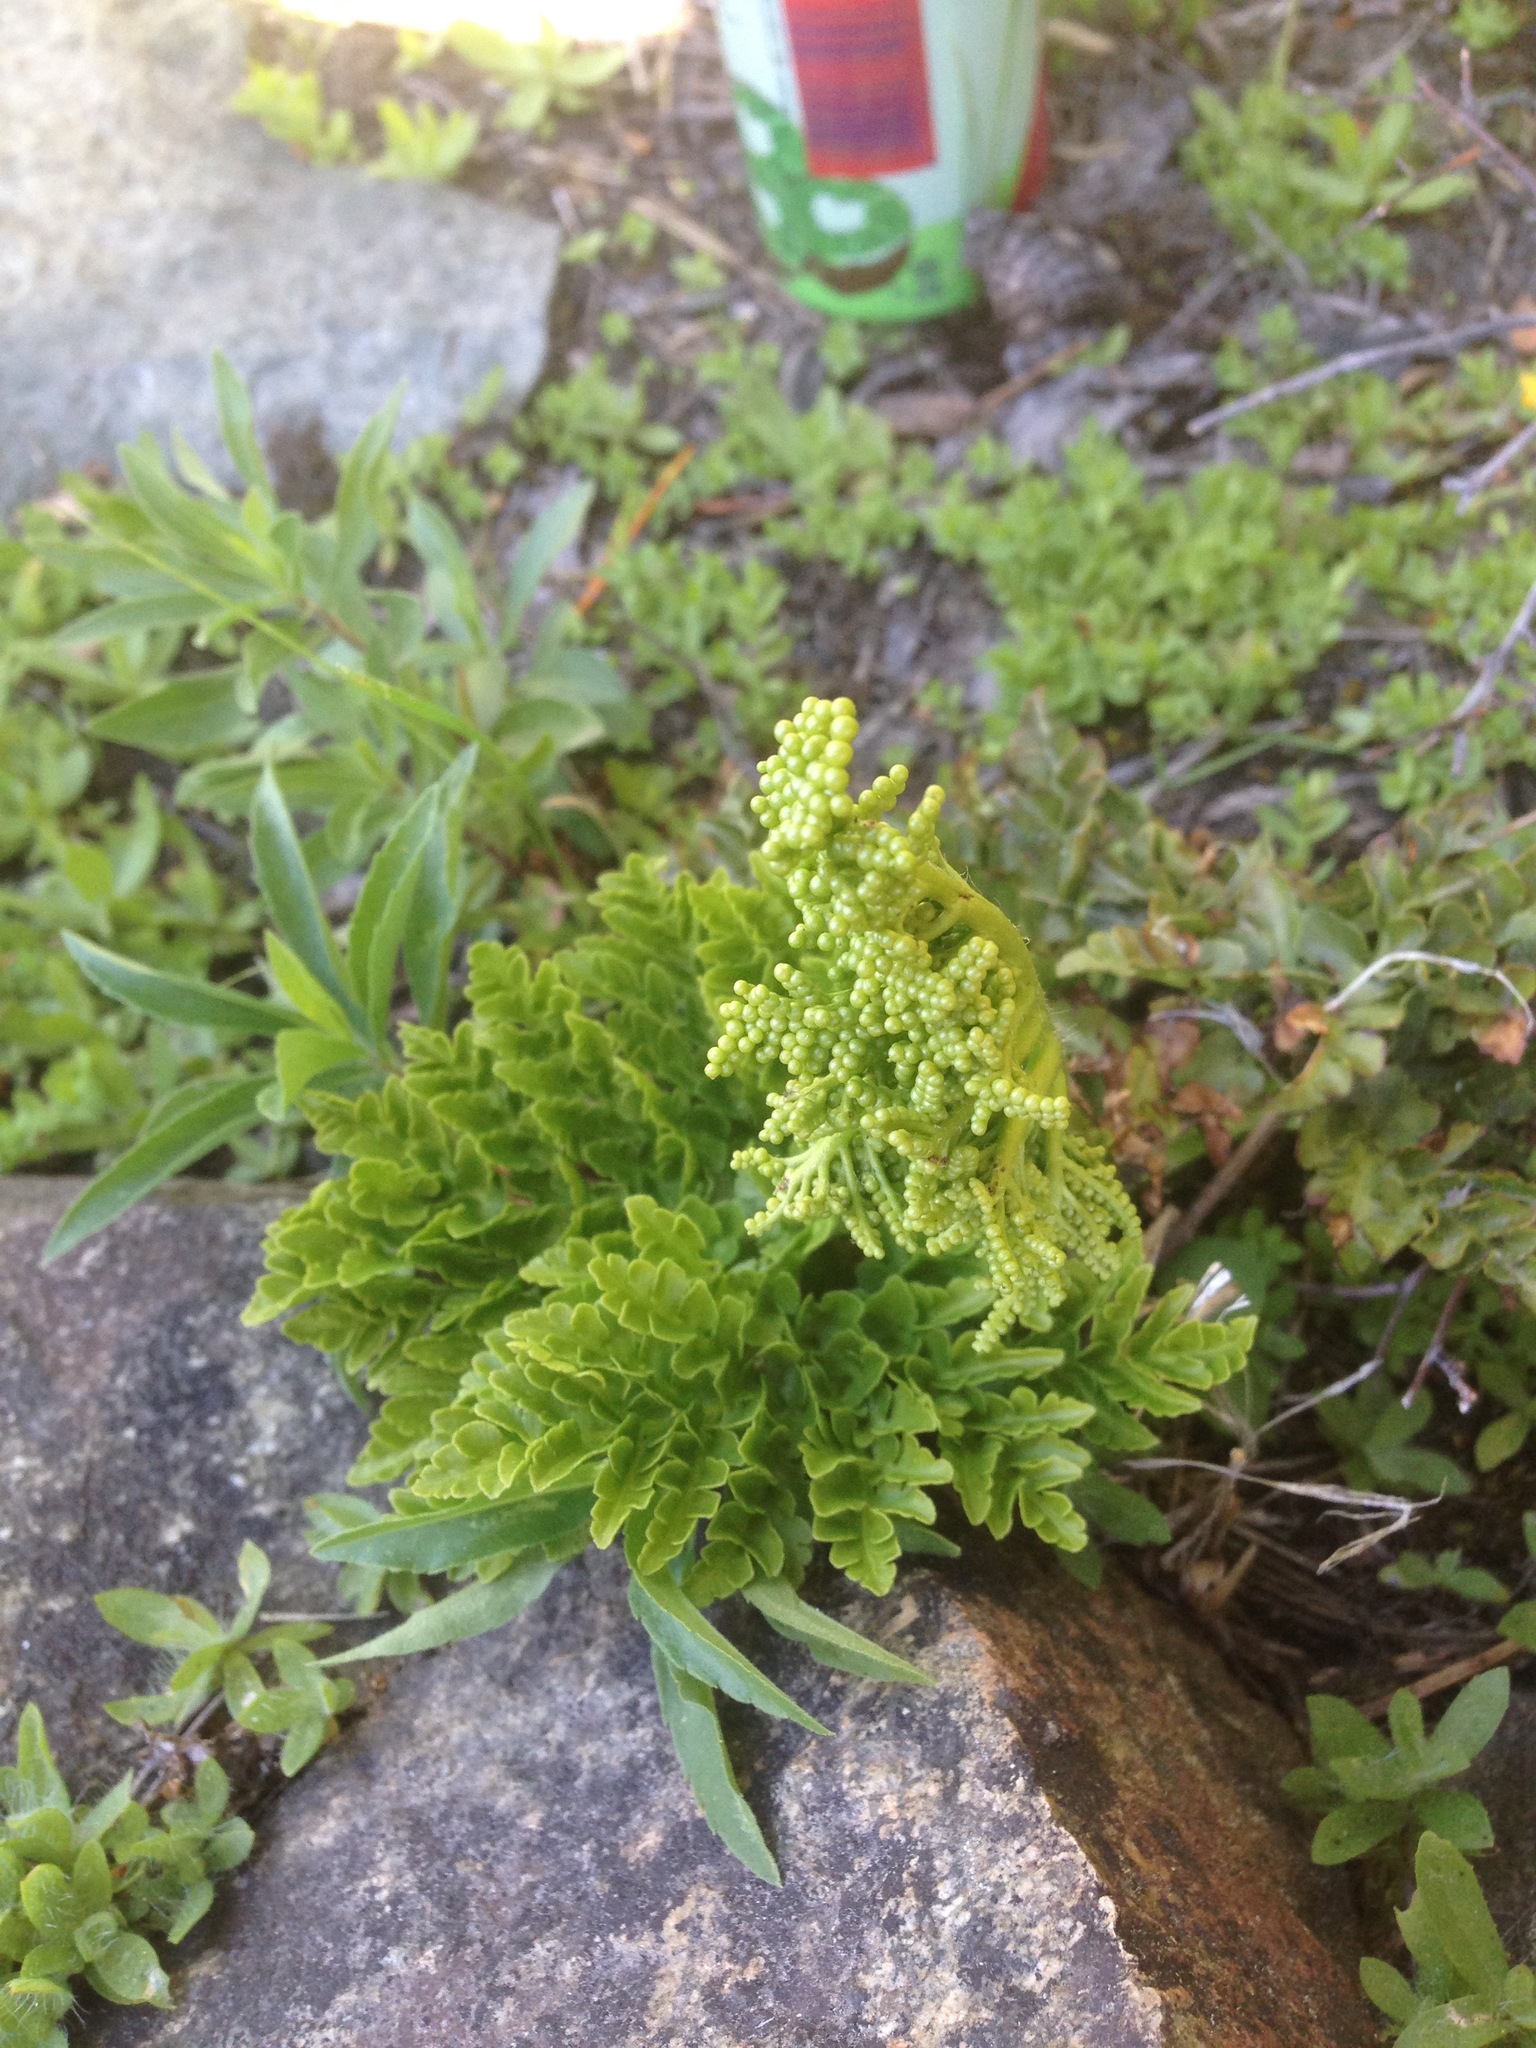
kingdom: Plantae
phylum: Tracheophyta
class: Polypodiopsida
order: Ophioglossales
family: Ophioglossaceae
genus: Sceptridium
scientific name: Sceptridium multifidum
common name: Leathery grape fern
